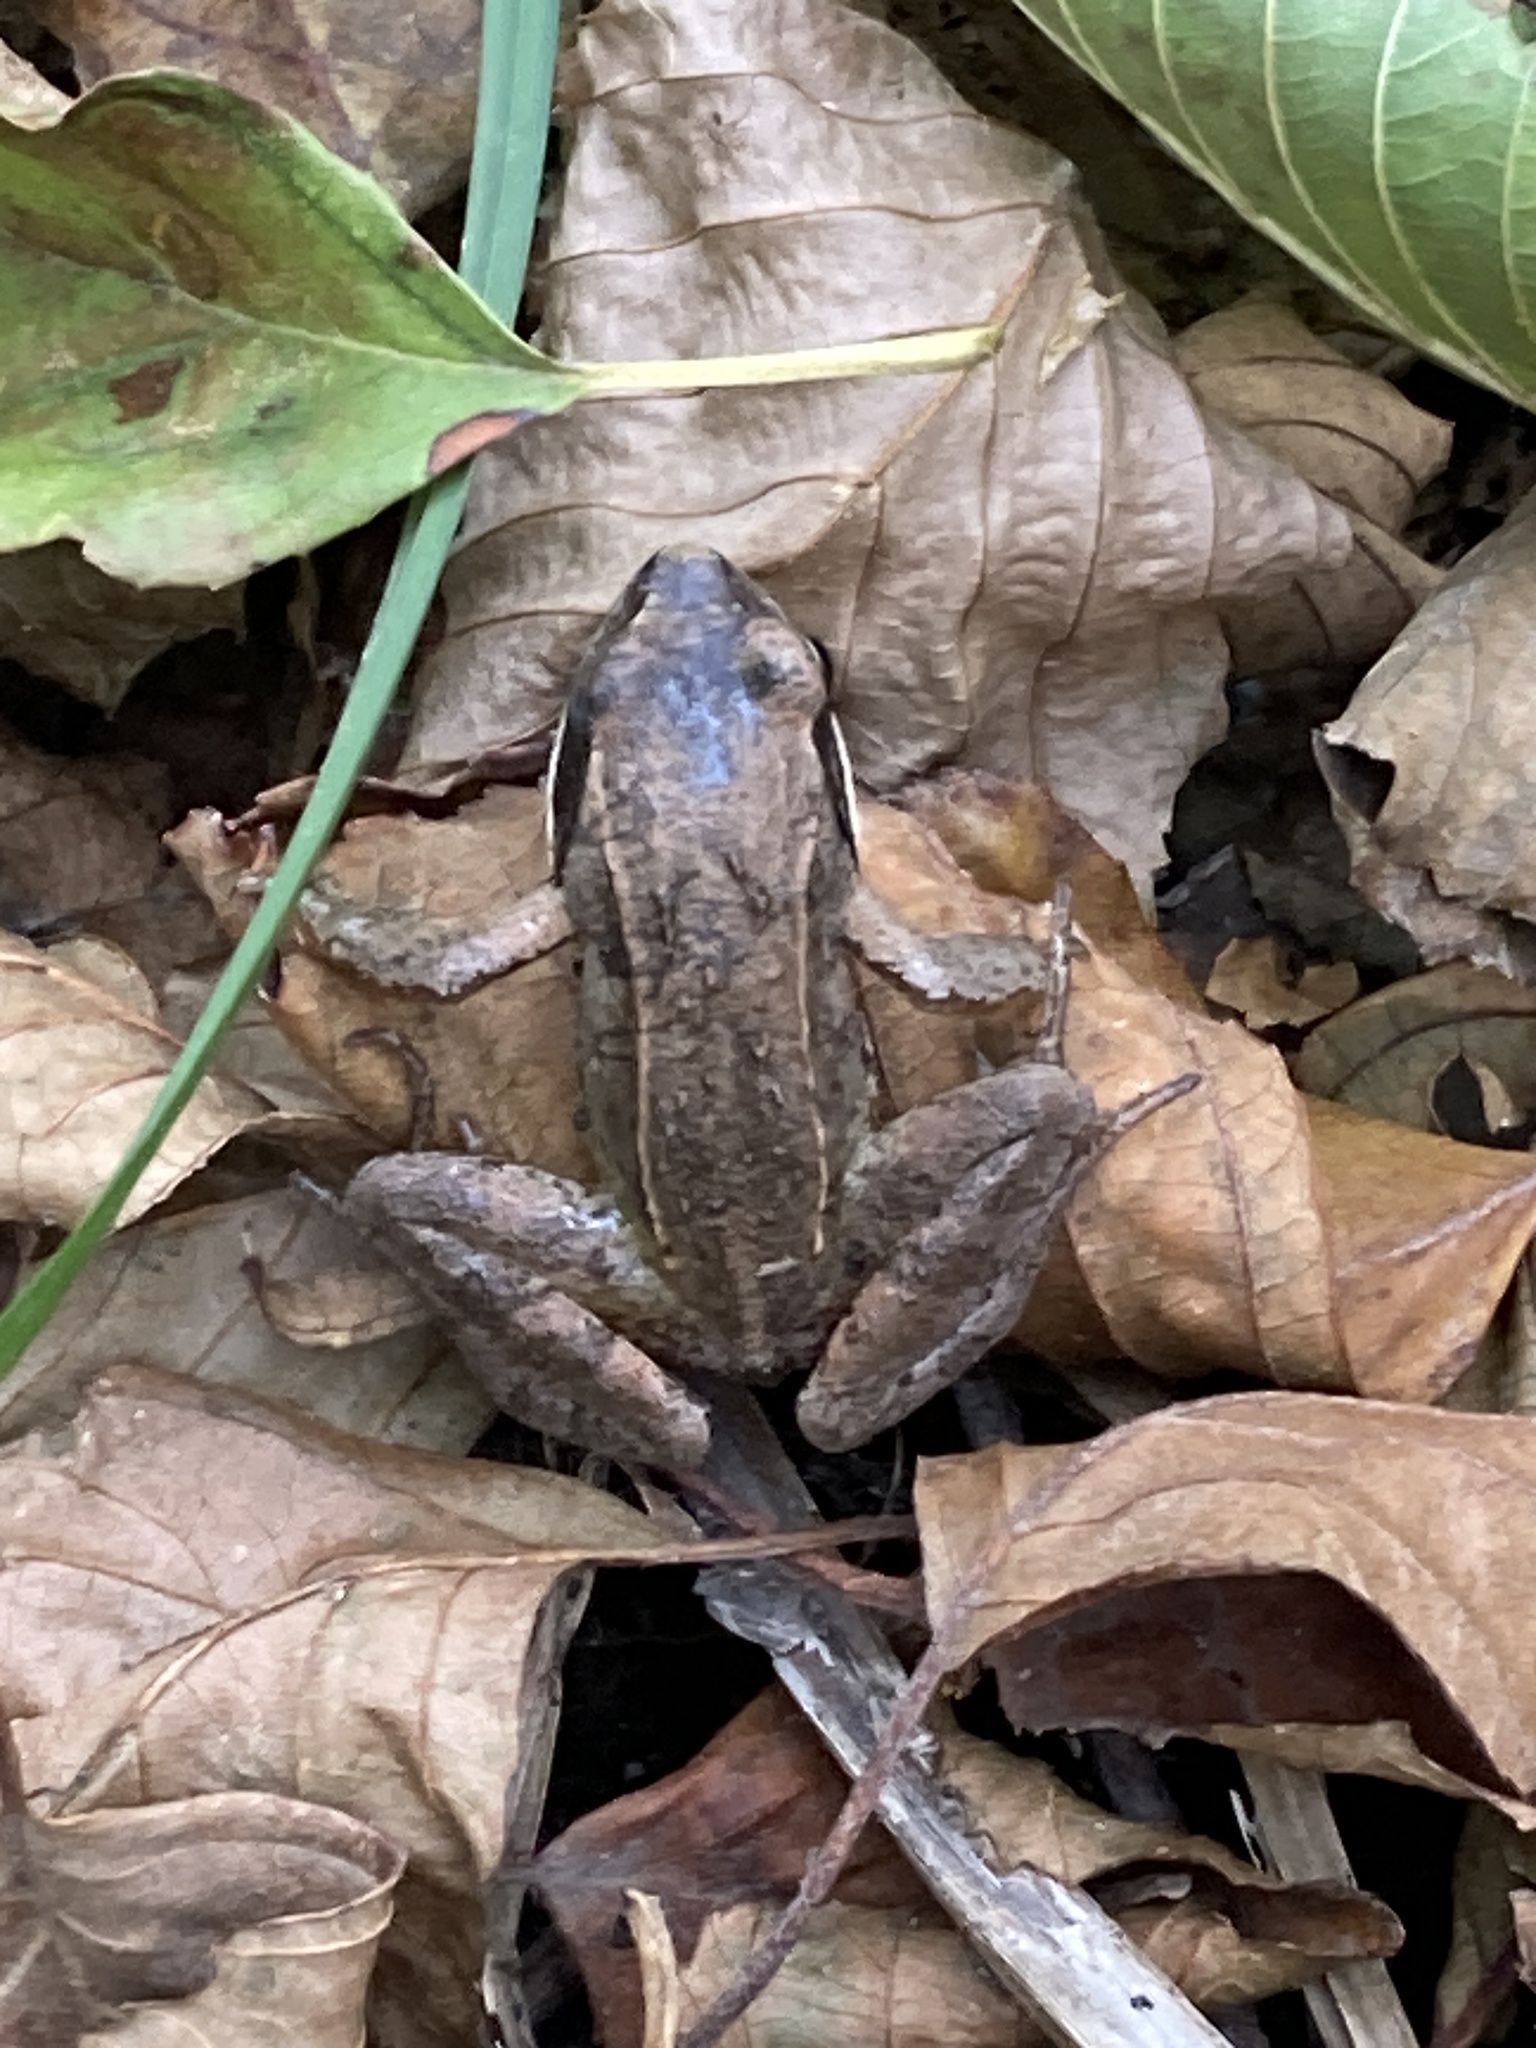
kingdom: Animalia
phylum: Chordata
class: Amphibia
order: Anura
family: Ranidae
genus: Rana
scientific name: Rana arvalis
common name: Moor frog
